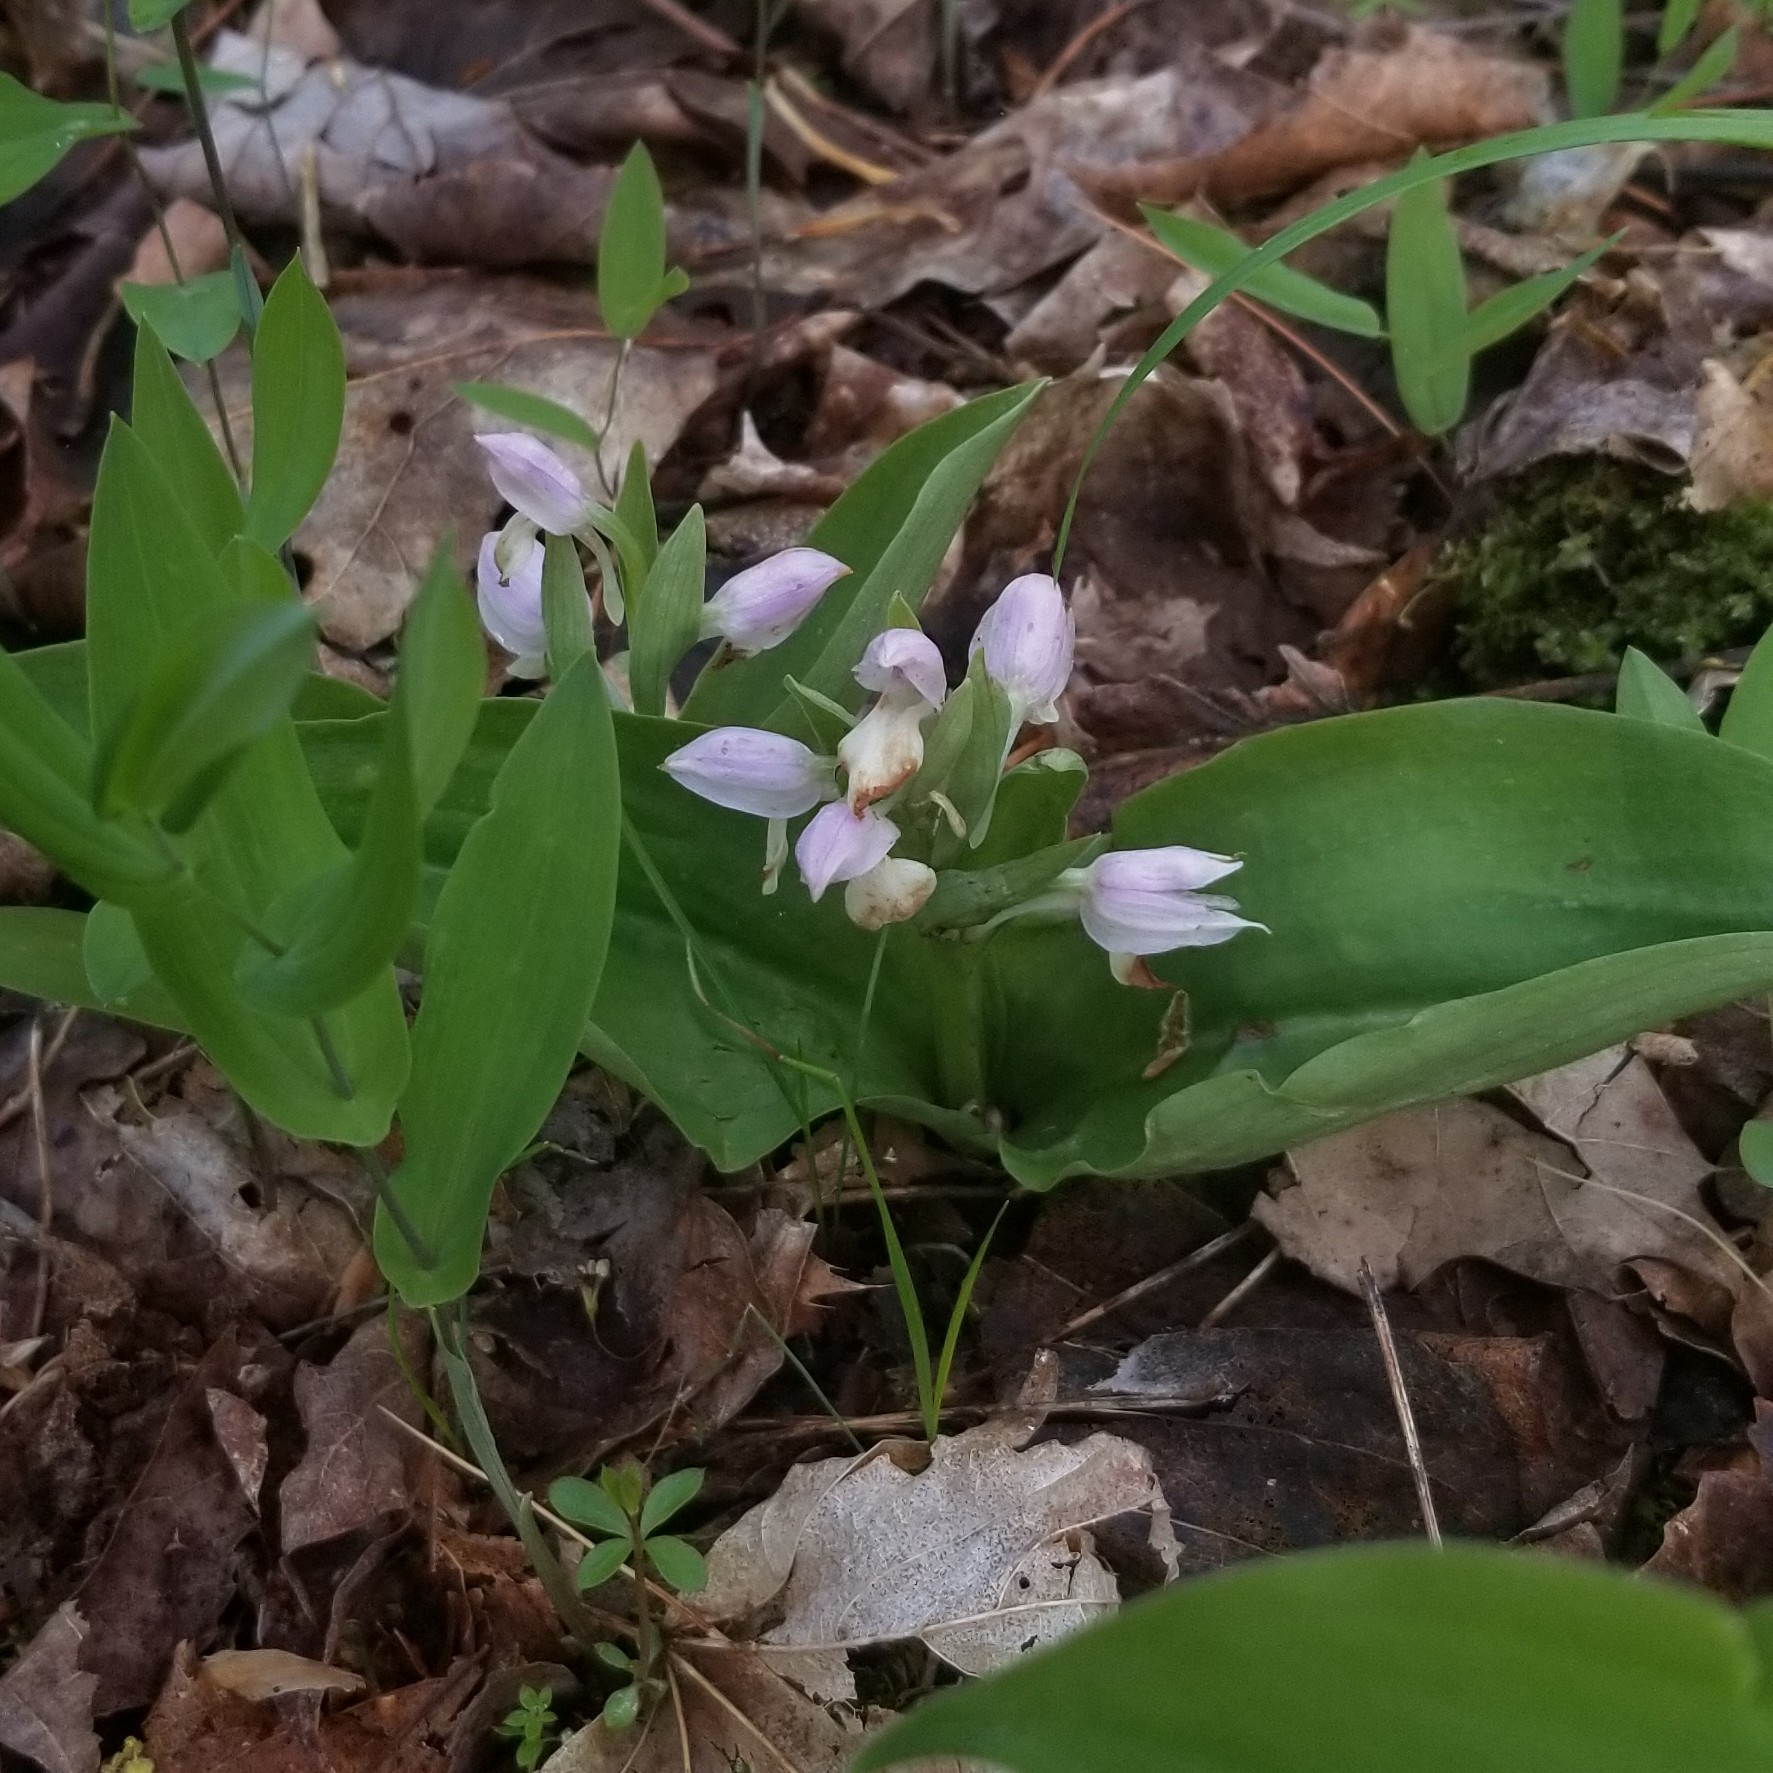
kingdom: Plantae
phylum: Tracheophyta
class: Liliopsida
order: Asparagales
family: Orchidaceae
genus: Galearis
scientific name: Galearis spectabilis
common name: Purple-hooded orchis
